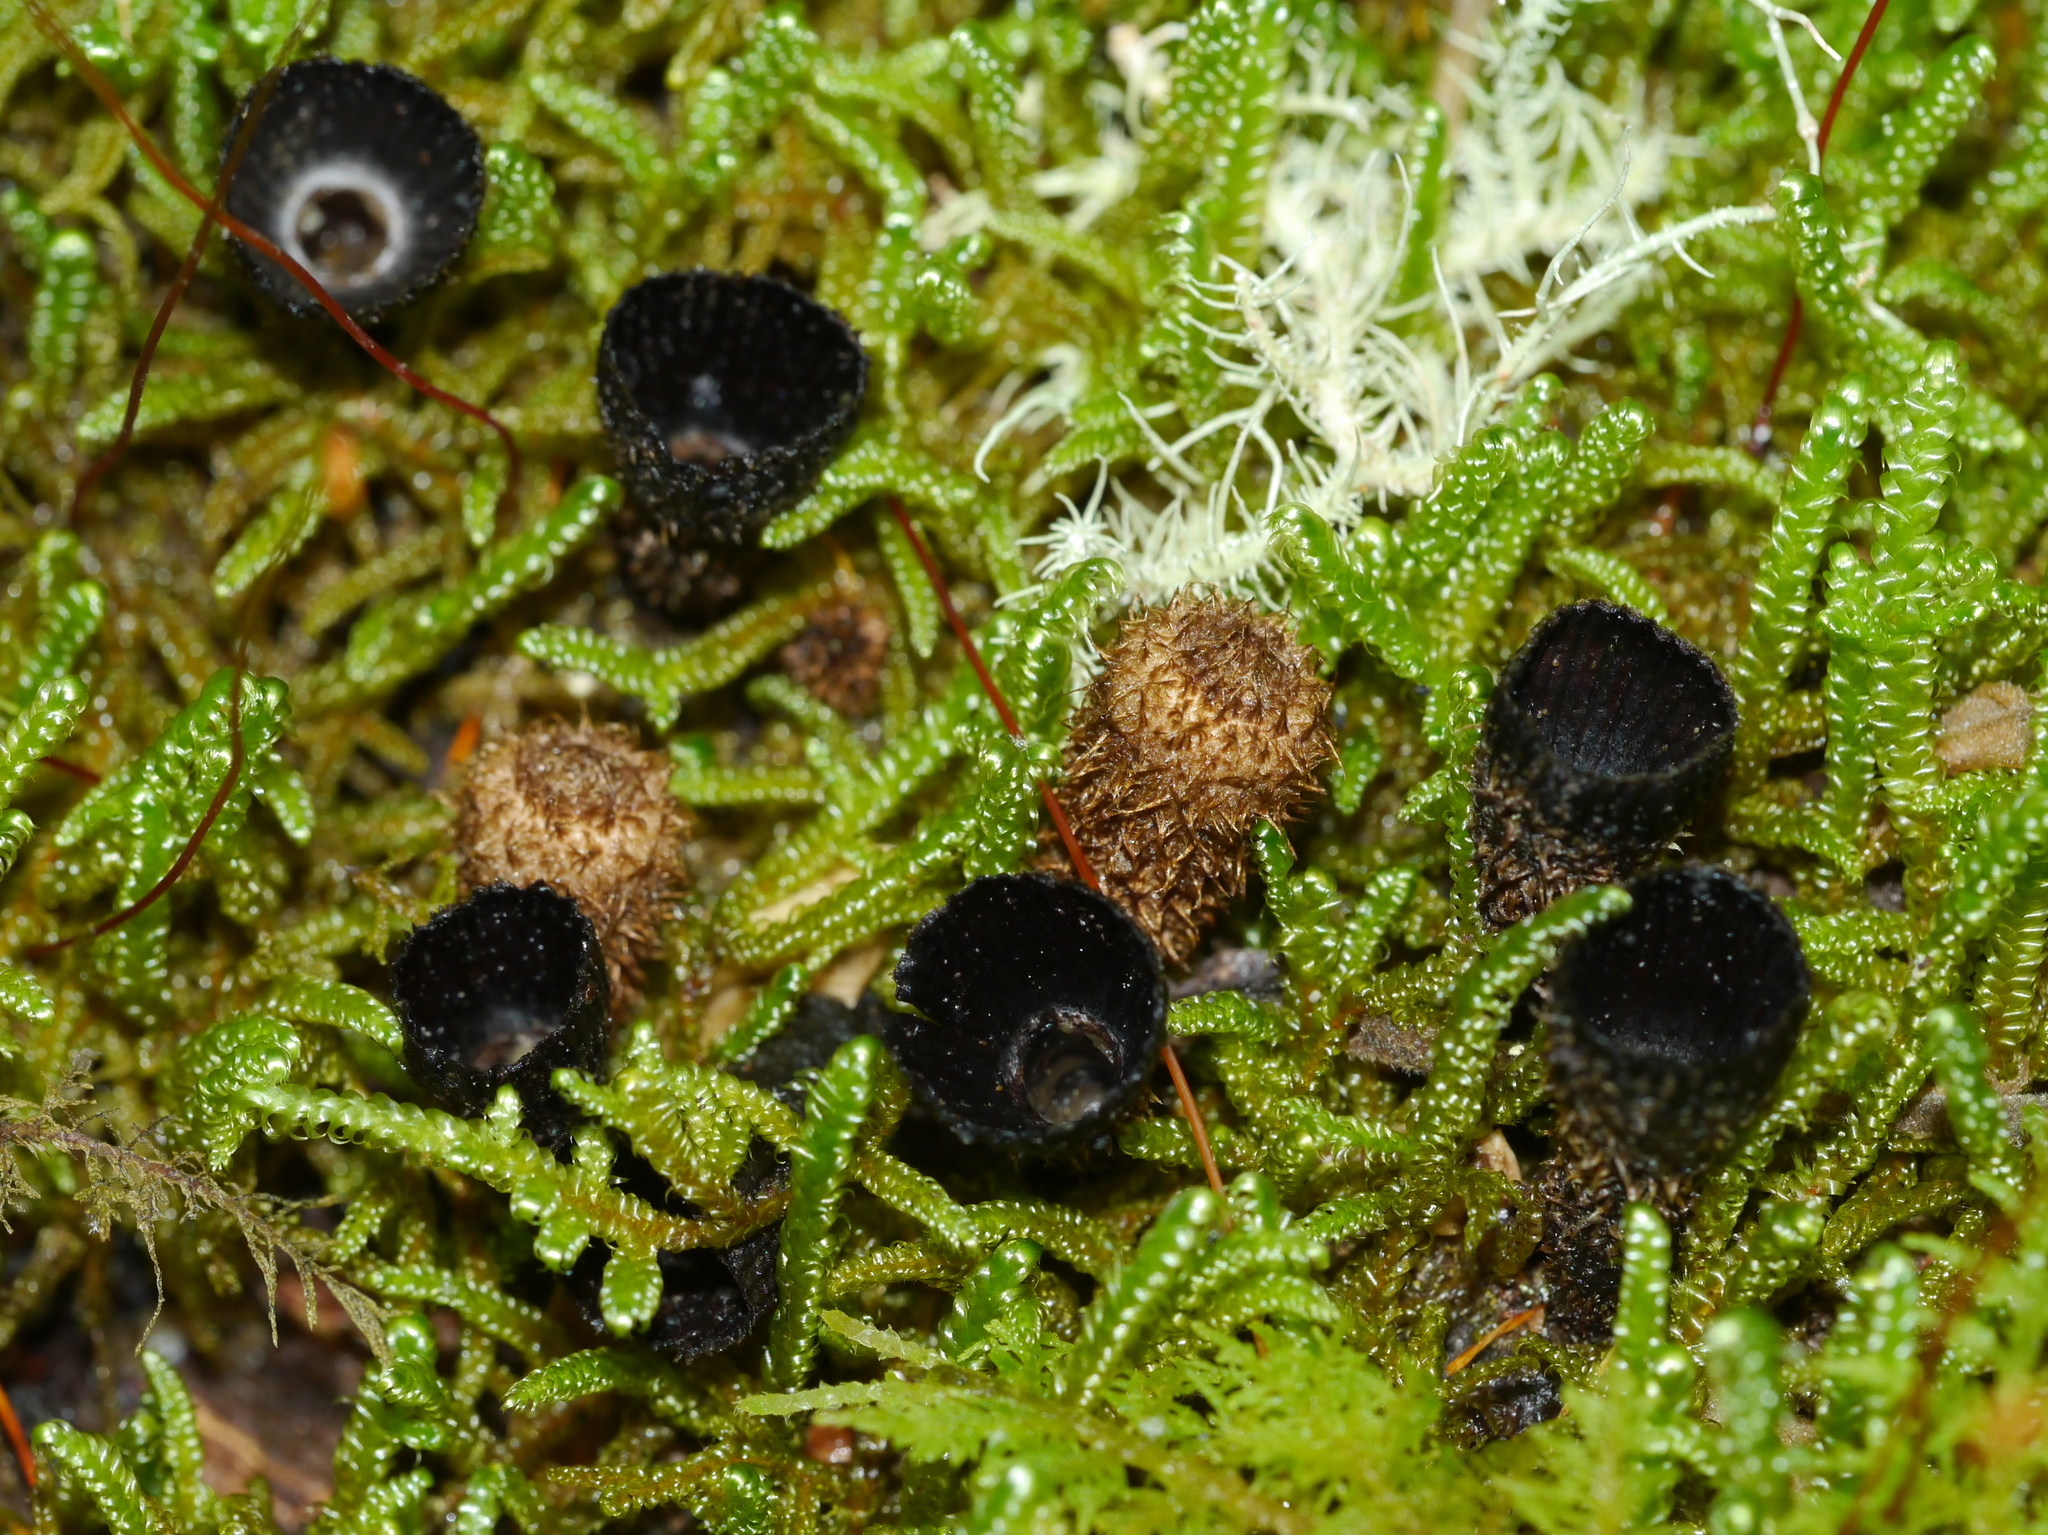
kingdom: Fungi
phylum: Basidiomycota
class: Agaricomycetes
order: Agaricales
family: Agaricaceae
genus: Cyathus
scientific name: Cyathus striatus
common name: Fluted bird's nest
